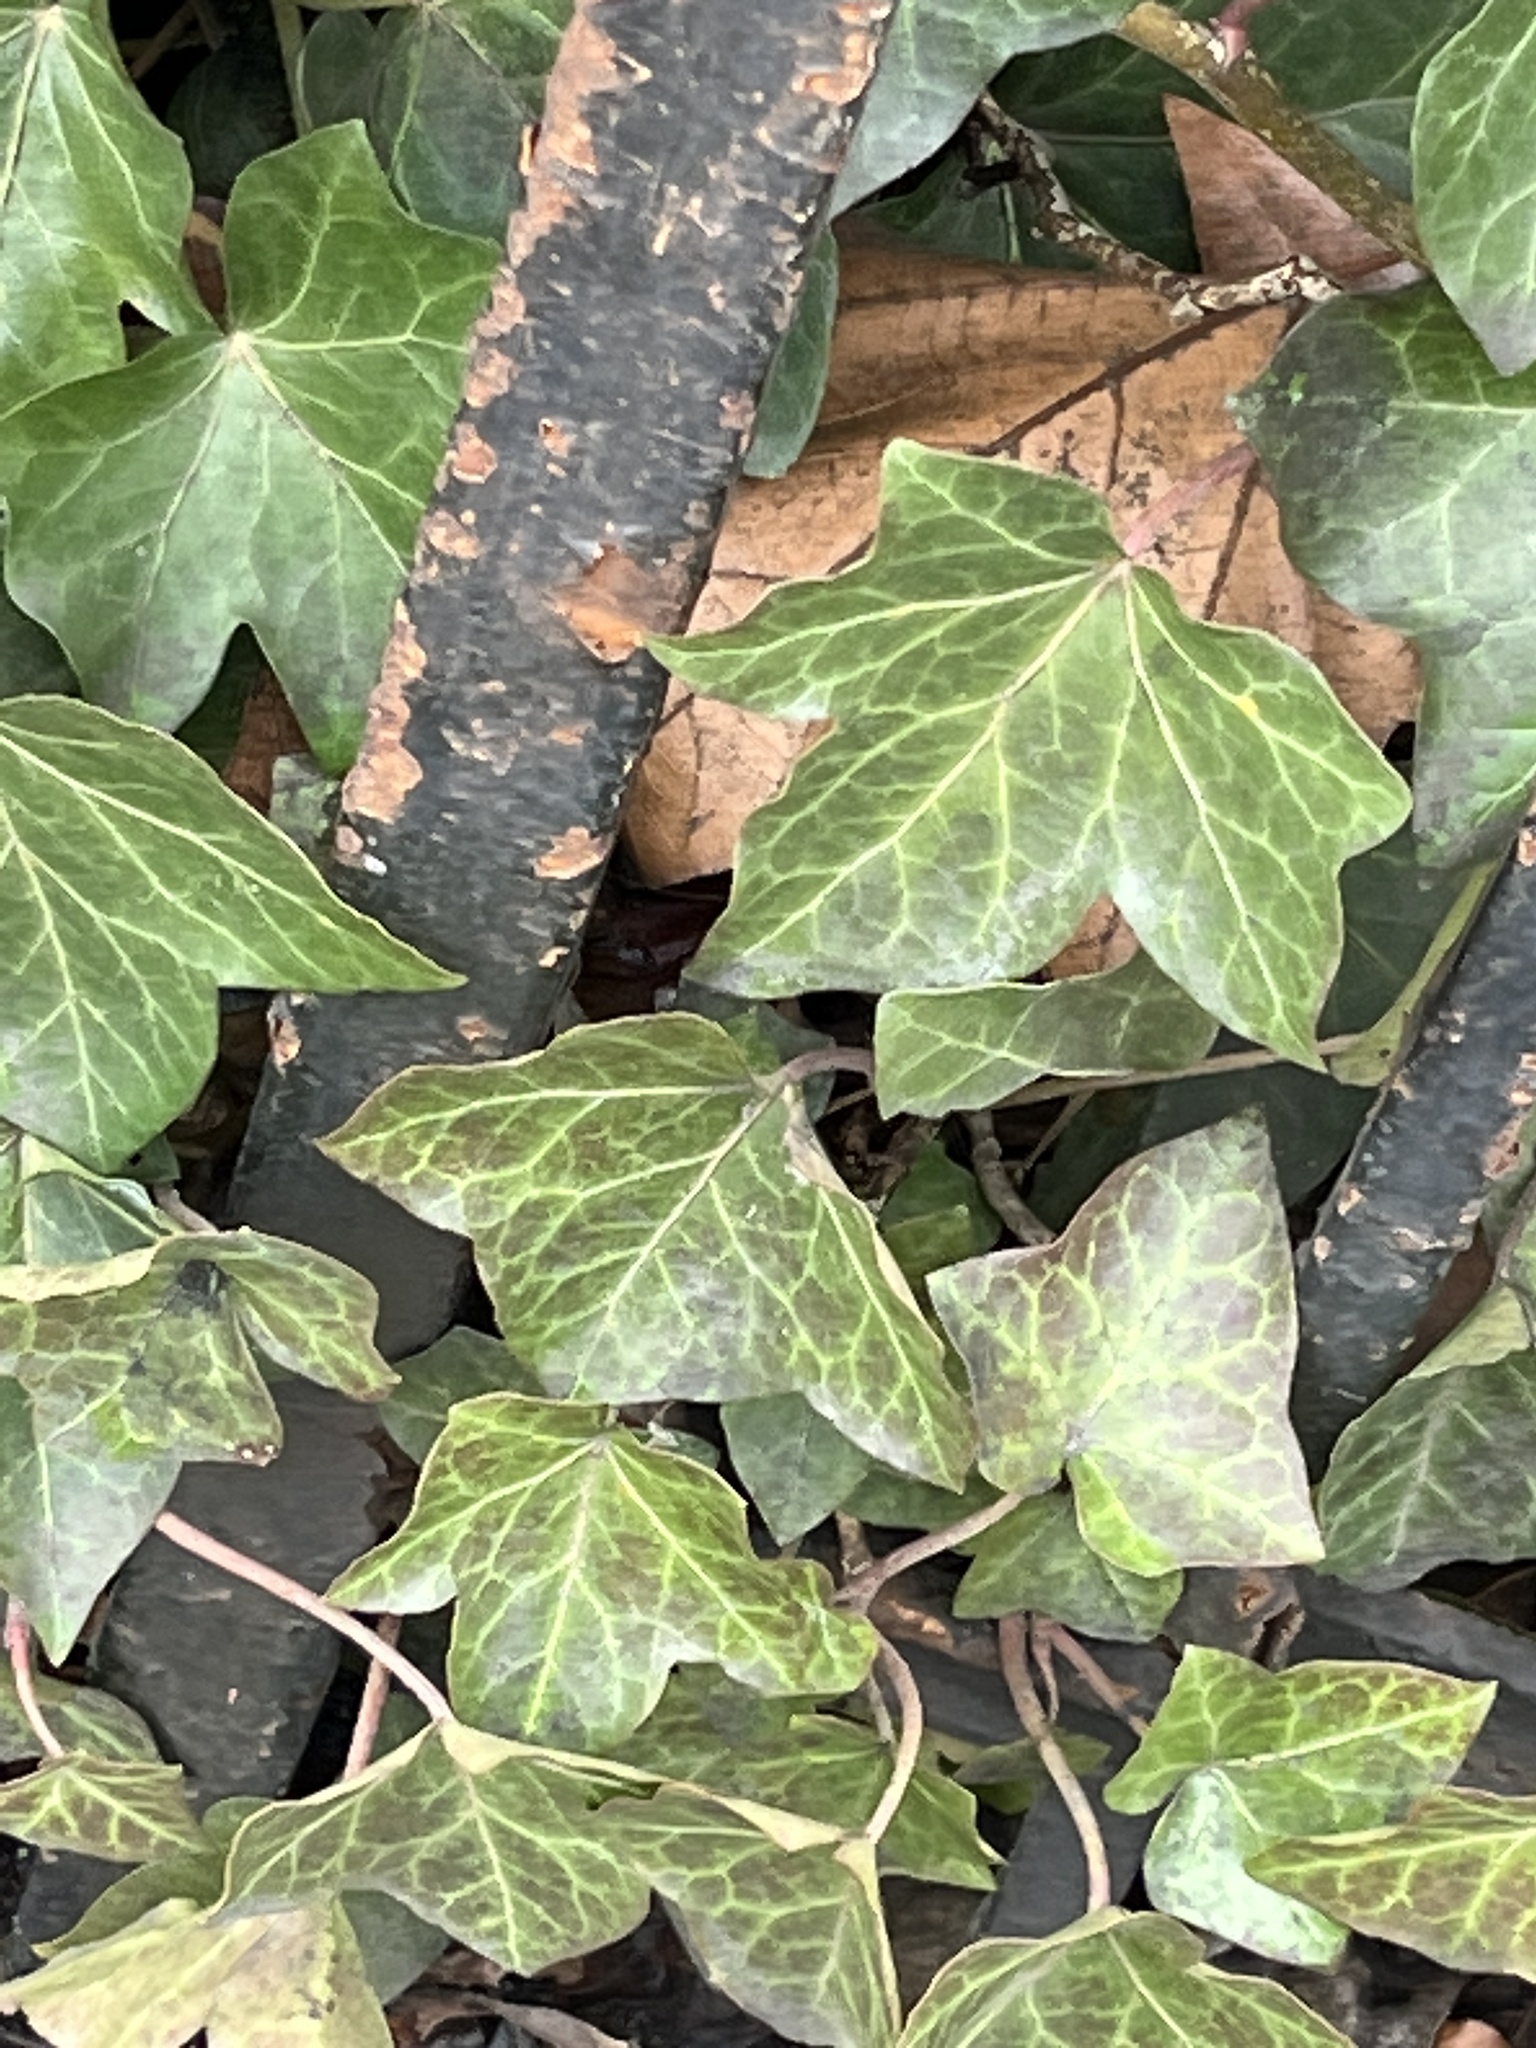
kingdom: Plantae
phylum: Tracheophyta
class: Magnoliopsida
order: Apiales
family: Araliaceae
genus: Hedera
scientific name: Hedera helix
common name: Ivy
